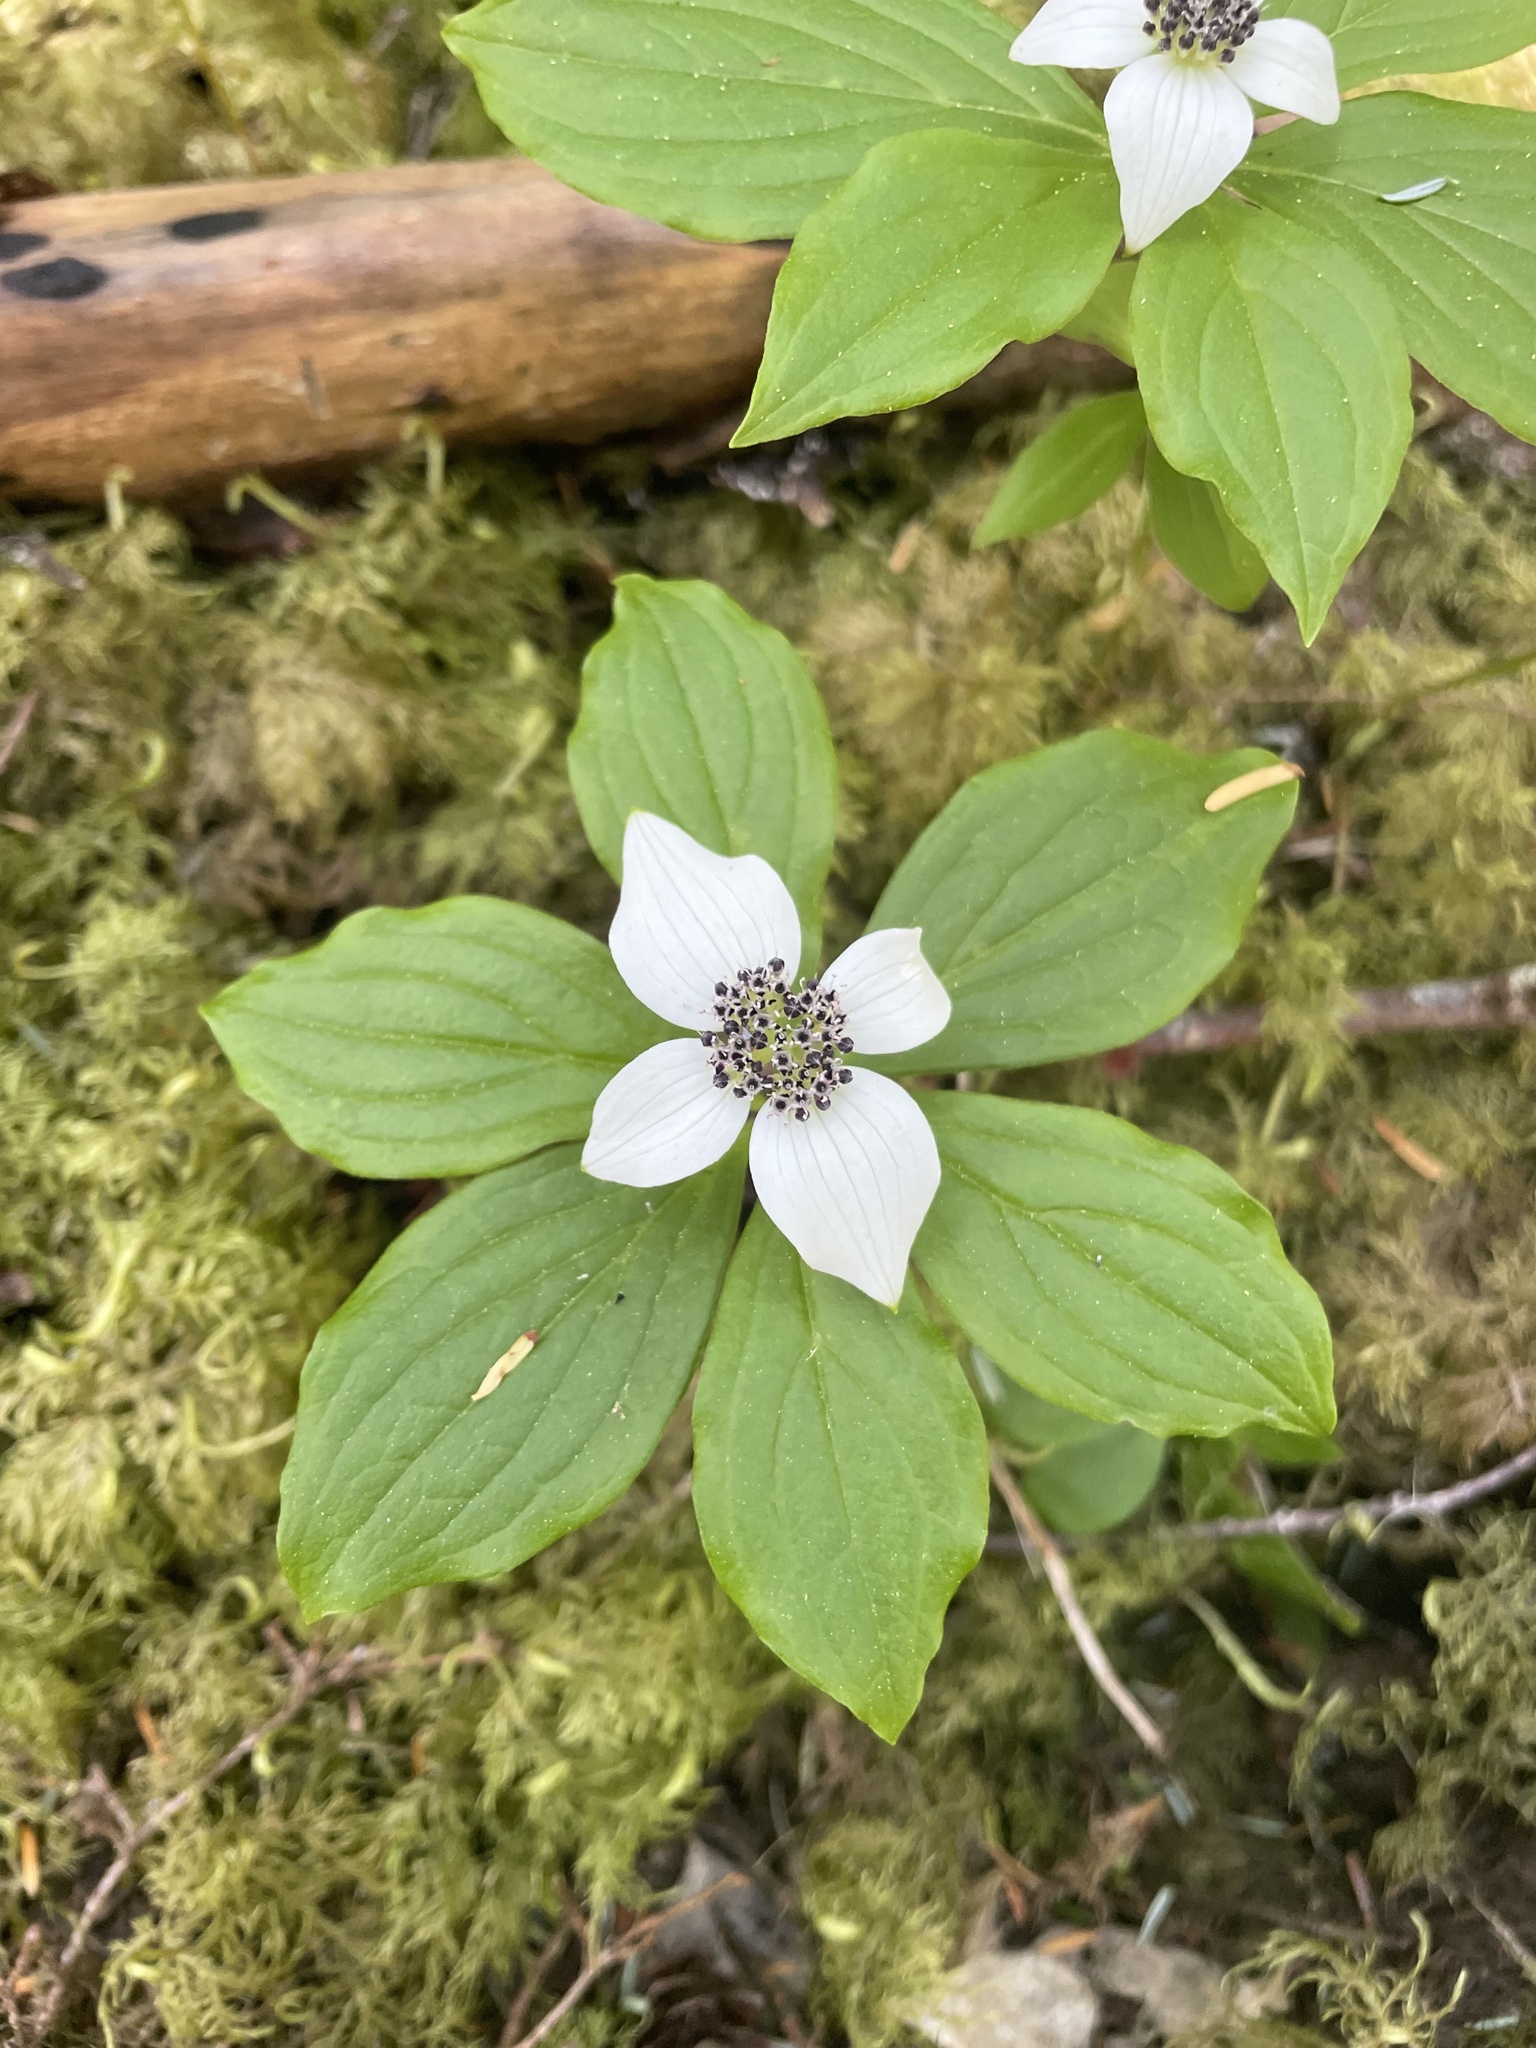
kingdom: Plantae
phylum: Tracheophyta
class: Magnoliopsida
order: Cornales
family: Cornaceae
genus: Cornus
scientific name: Cornus unalaschkensis
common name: Alaska bunchberry
